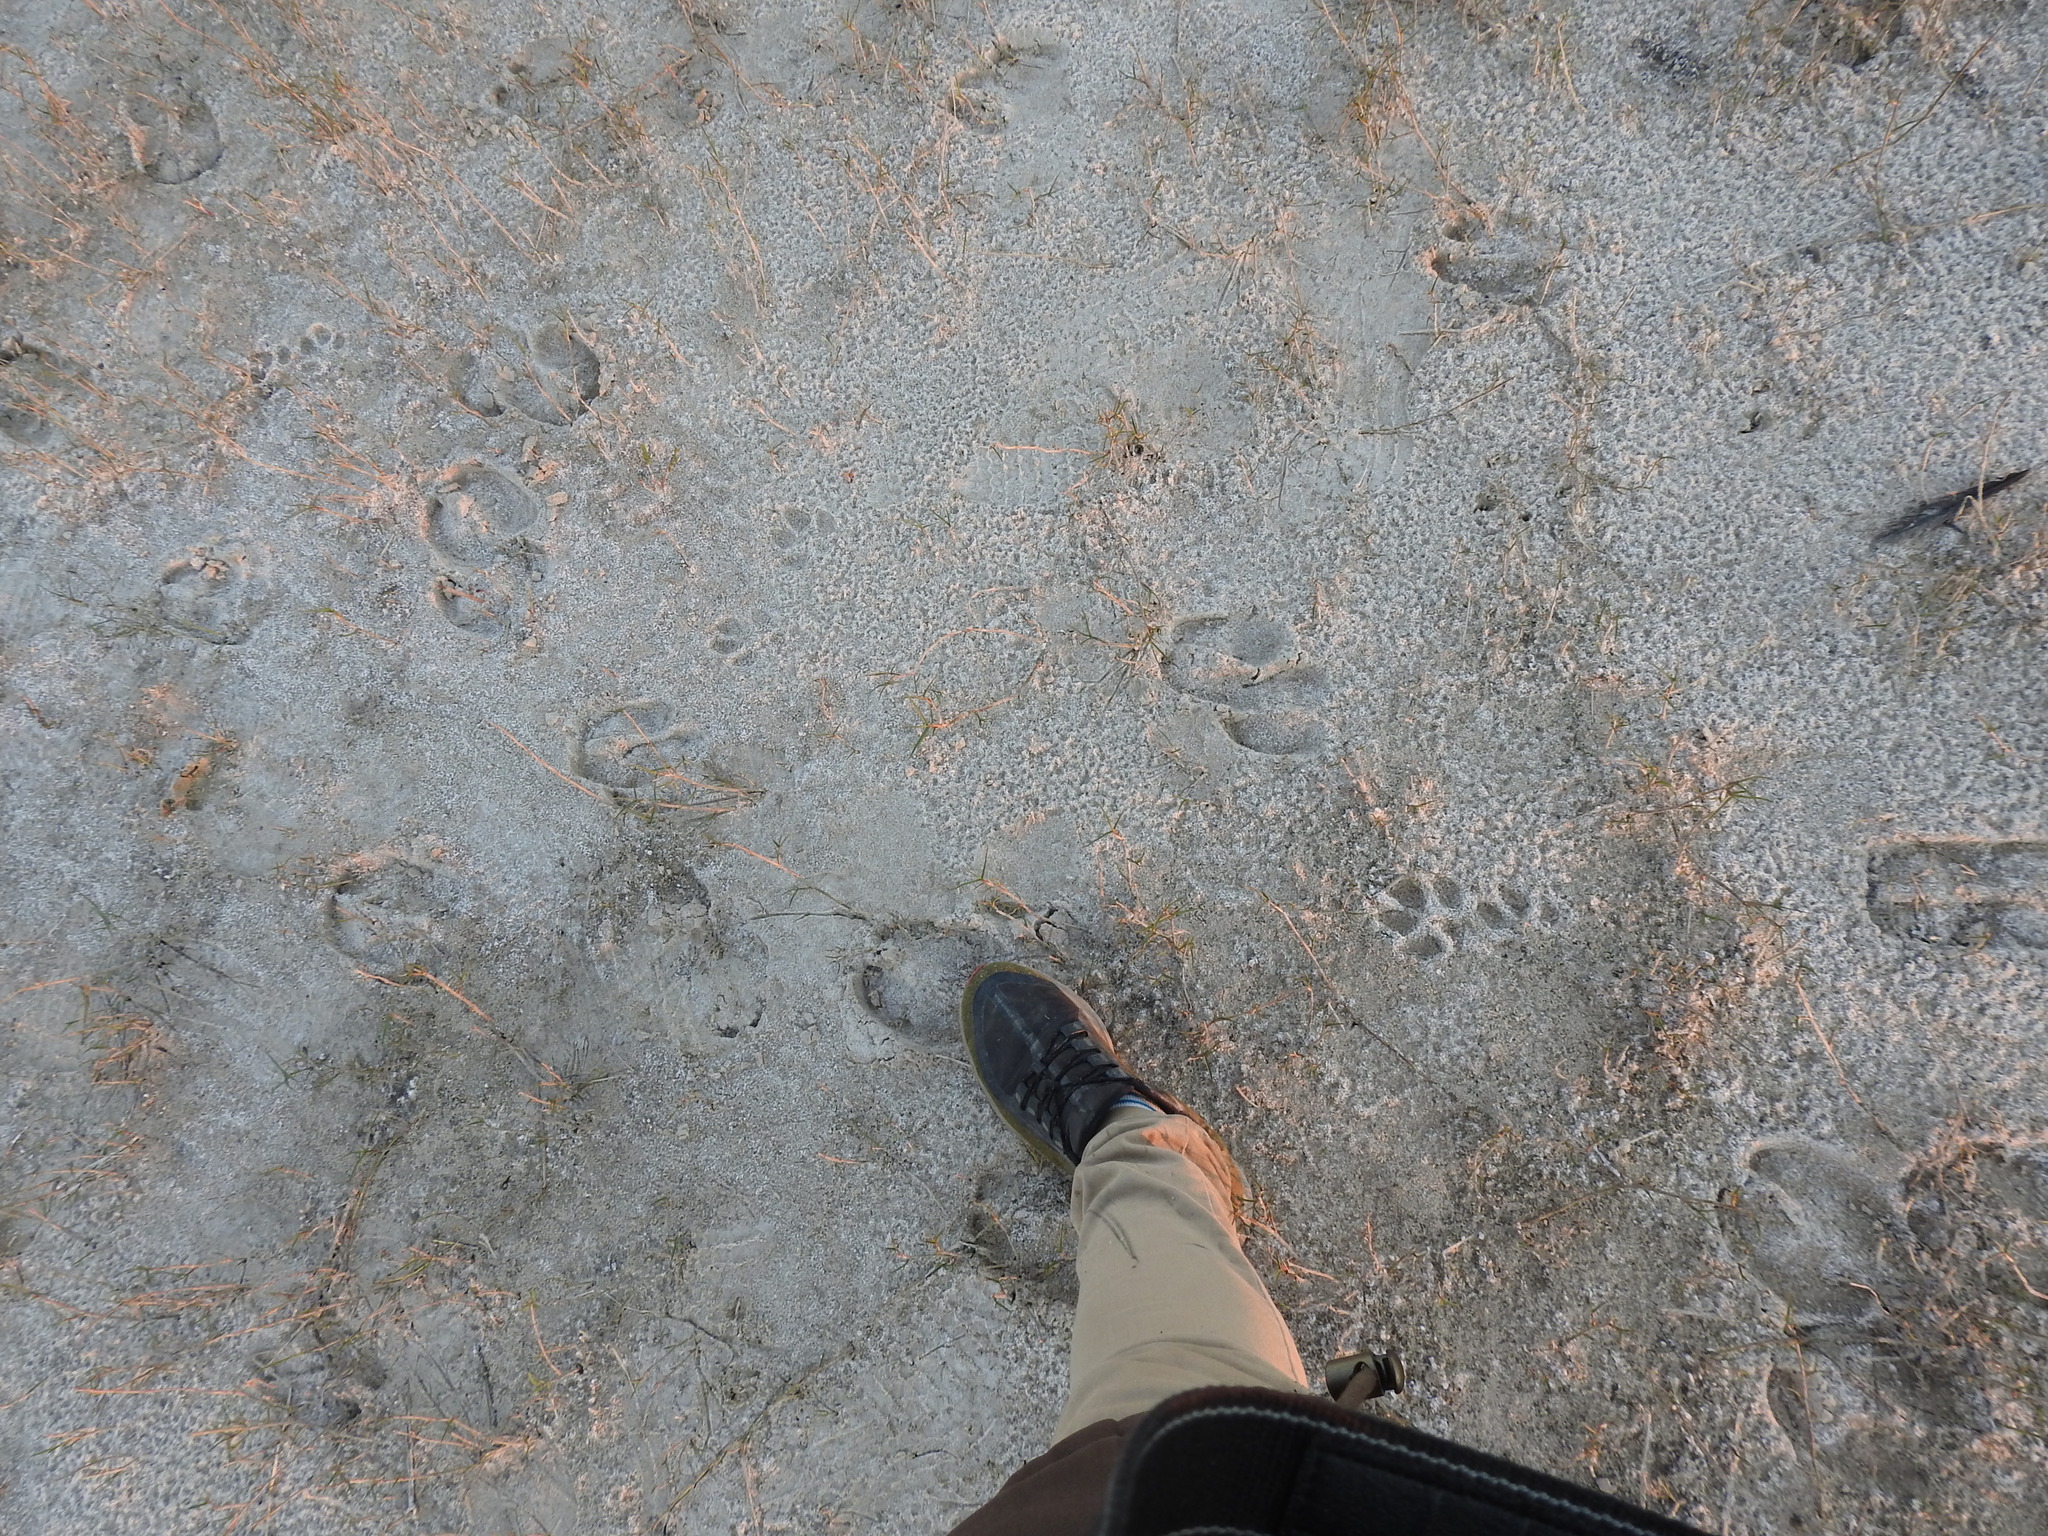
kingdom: Animalia
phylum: Chordata
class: Mammalia
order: Carnivora
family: Canidae
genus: Chrysocyon
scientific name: Chrysocyon brachyurus
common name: Maned wolf
